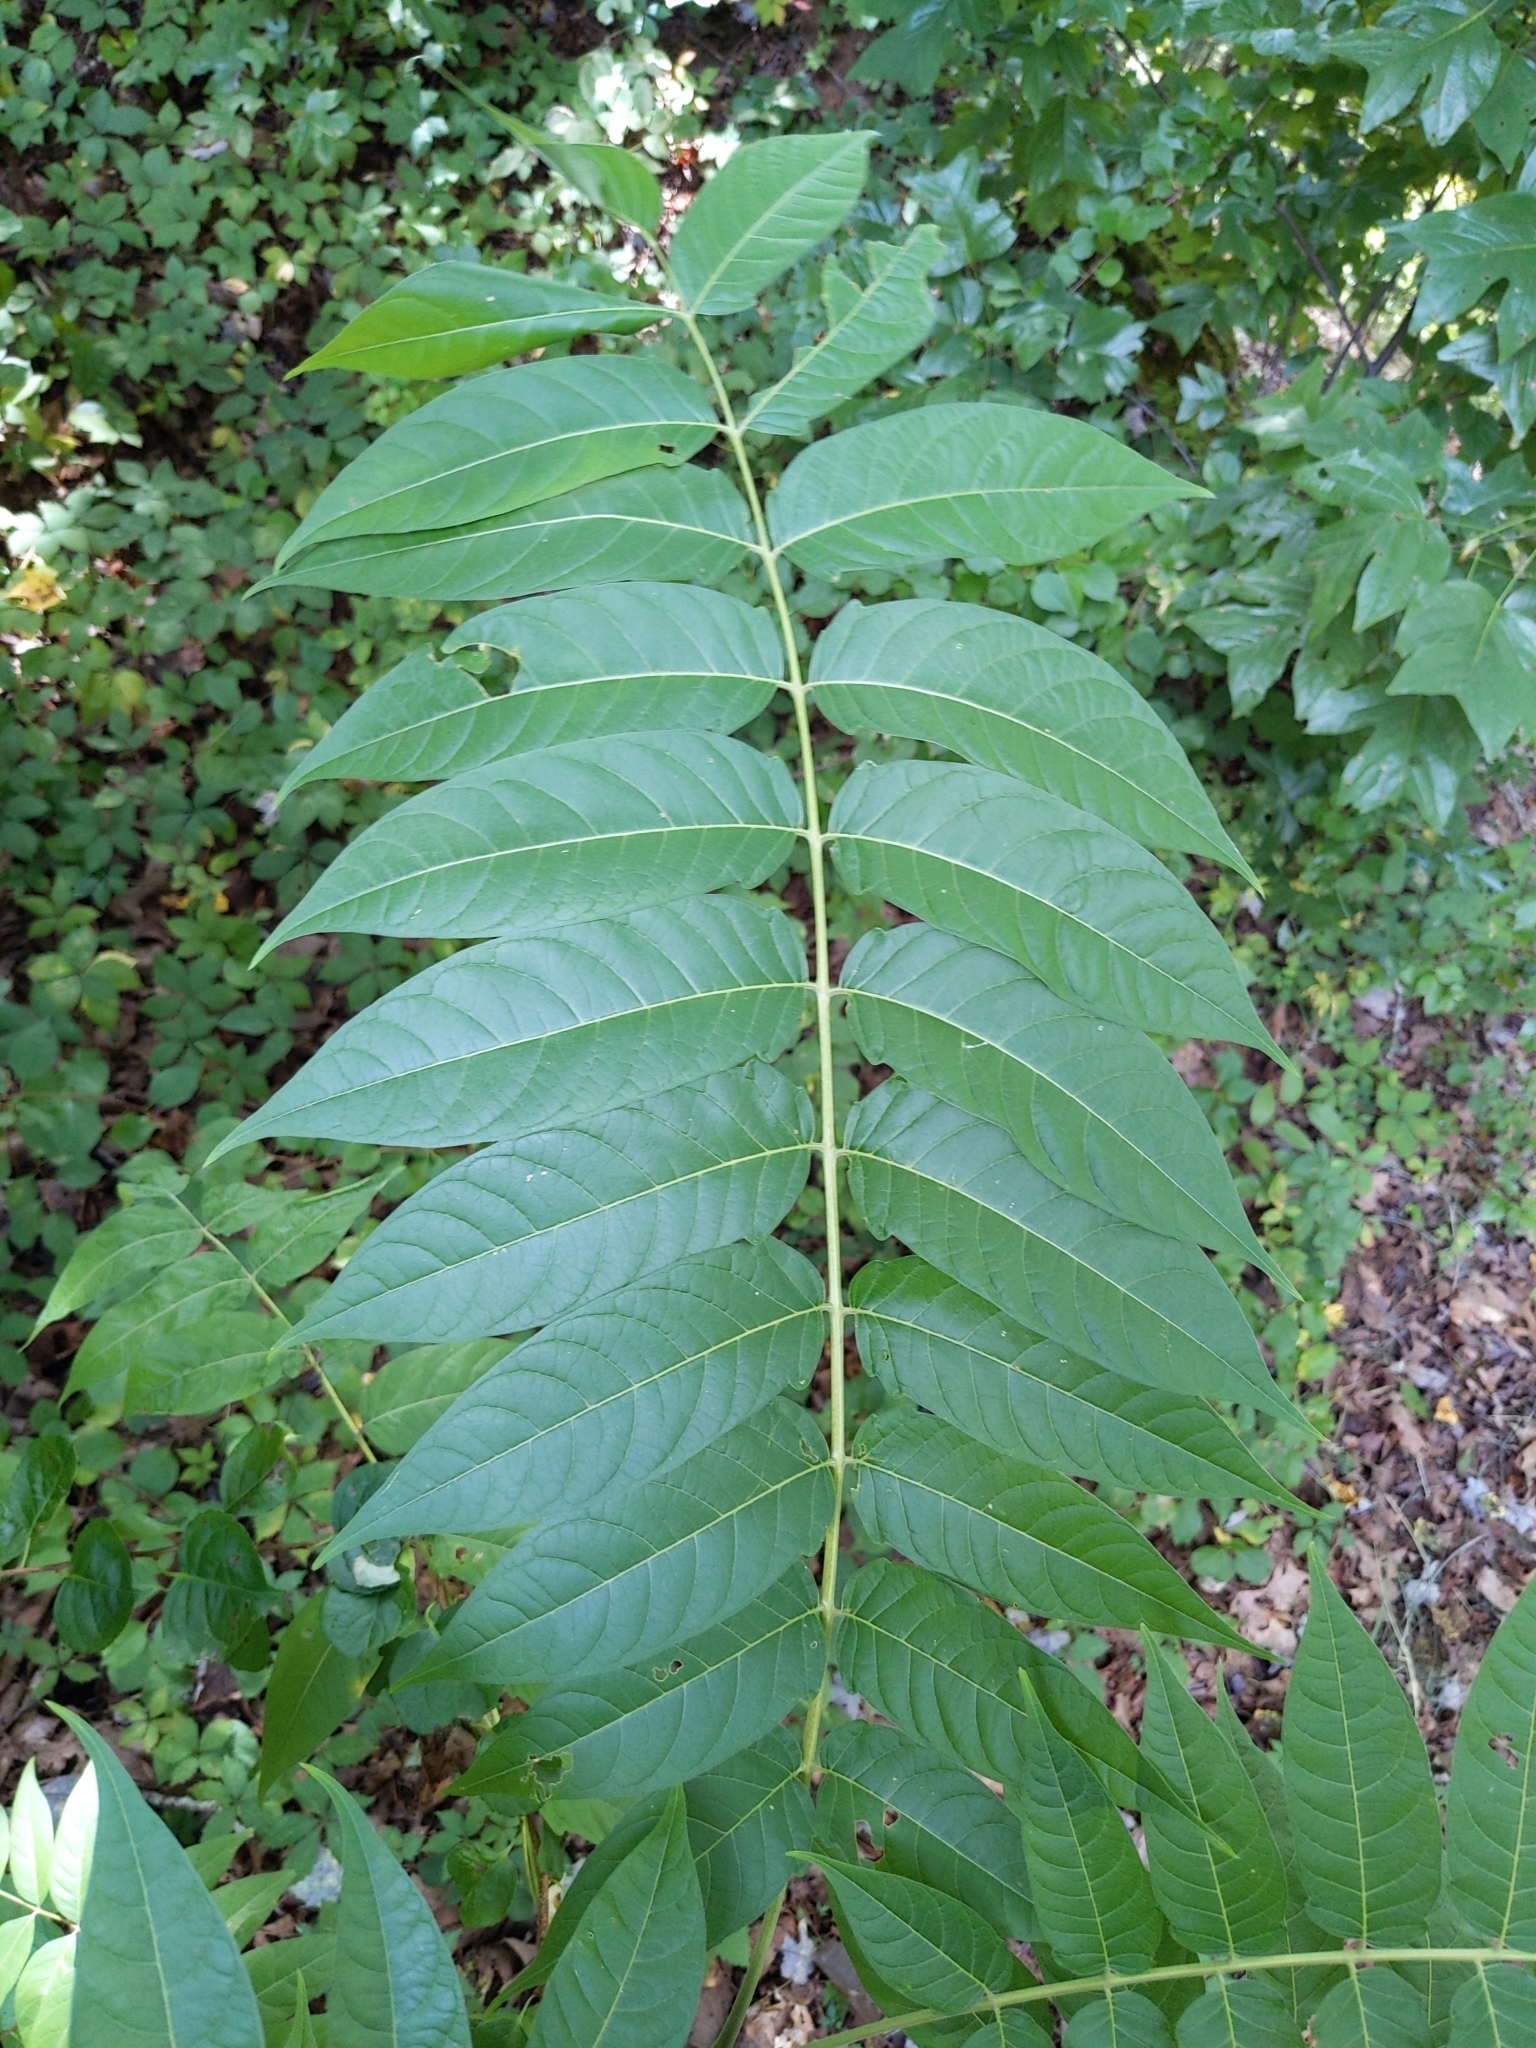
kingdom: Plantae
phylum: Tracheophyta
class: Magnoliopsida
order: Sapindales
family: Simaroubaceae
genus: Ailanthus
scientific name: Ailanthus altissima
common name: Tree-of-heaven
